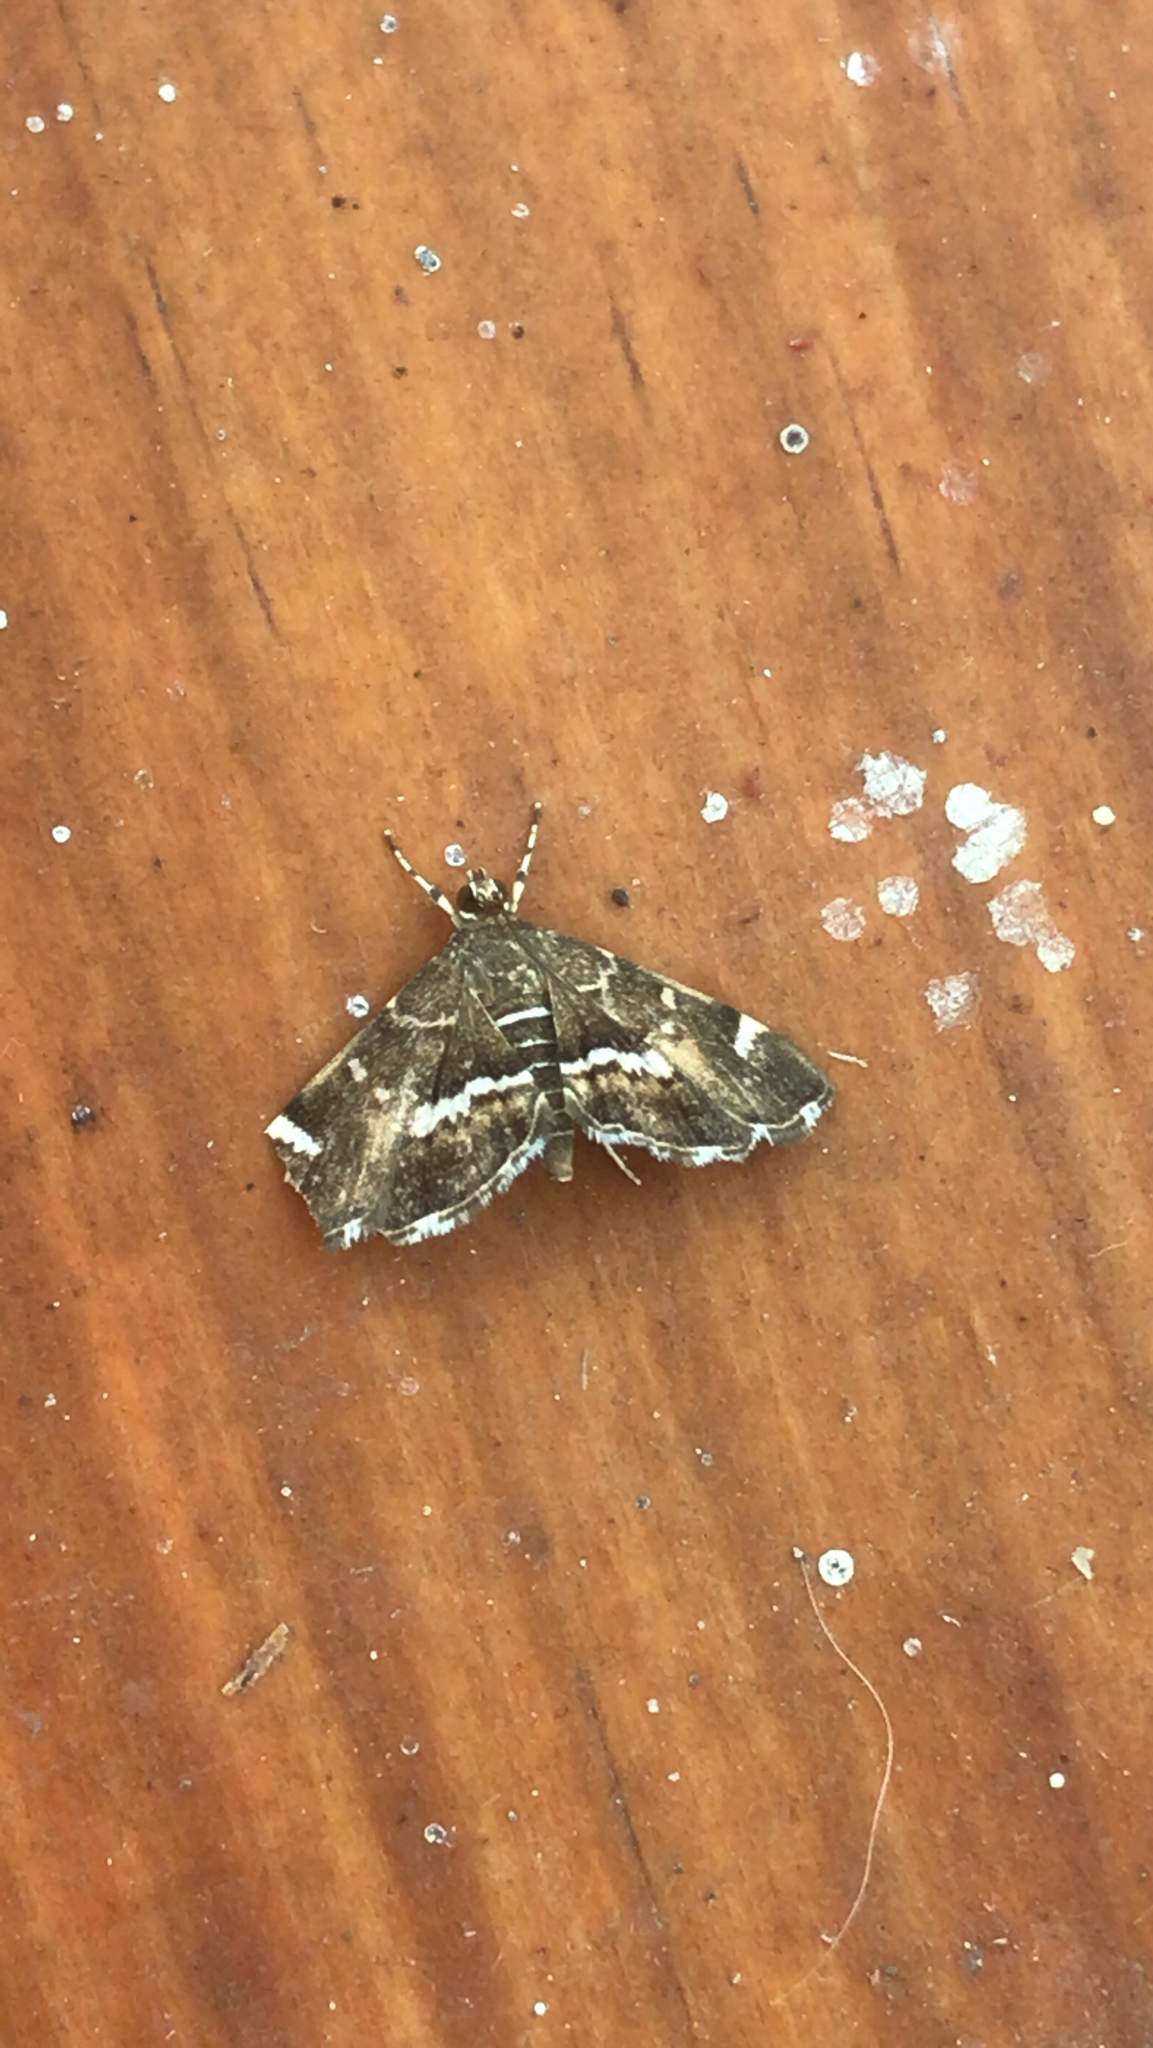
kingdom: Animalia
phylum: Arthropoda
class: Insecta
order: Lepidoptera
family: Crambidae
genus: Hymenia
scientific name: Hymenia perspectalis
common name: Spotted beet webworm
